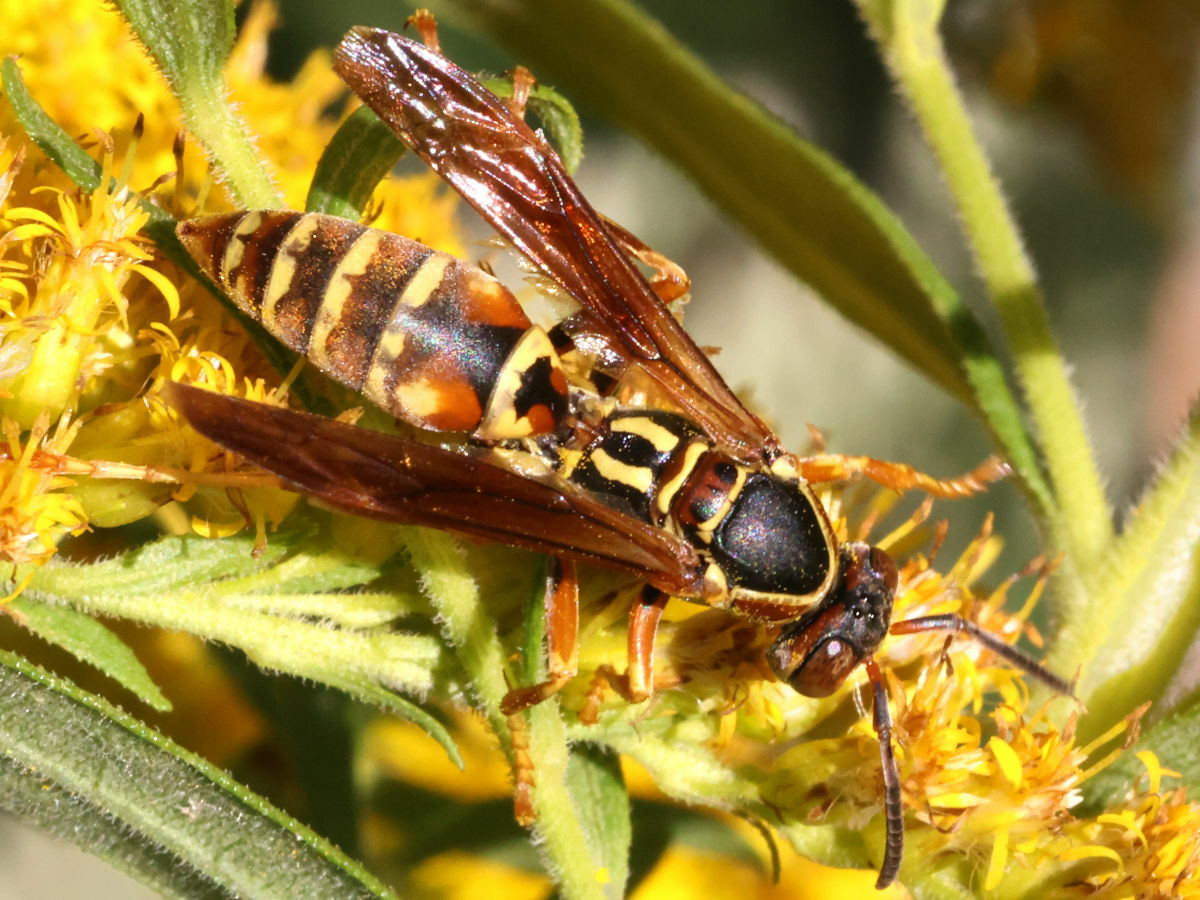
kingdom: Animalia
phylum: Arthropoda
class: Insecta
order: Hymenoptera
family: Eumenidae
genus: Polistes
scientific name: Polistes fuscatus
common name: Dark paper wasp
